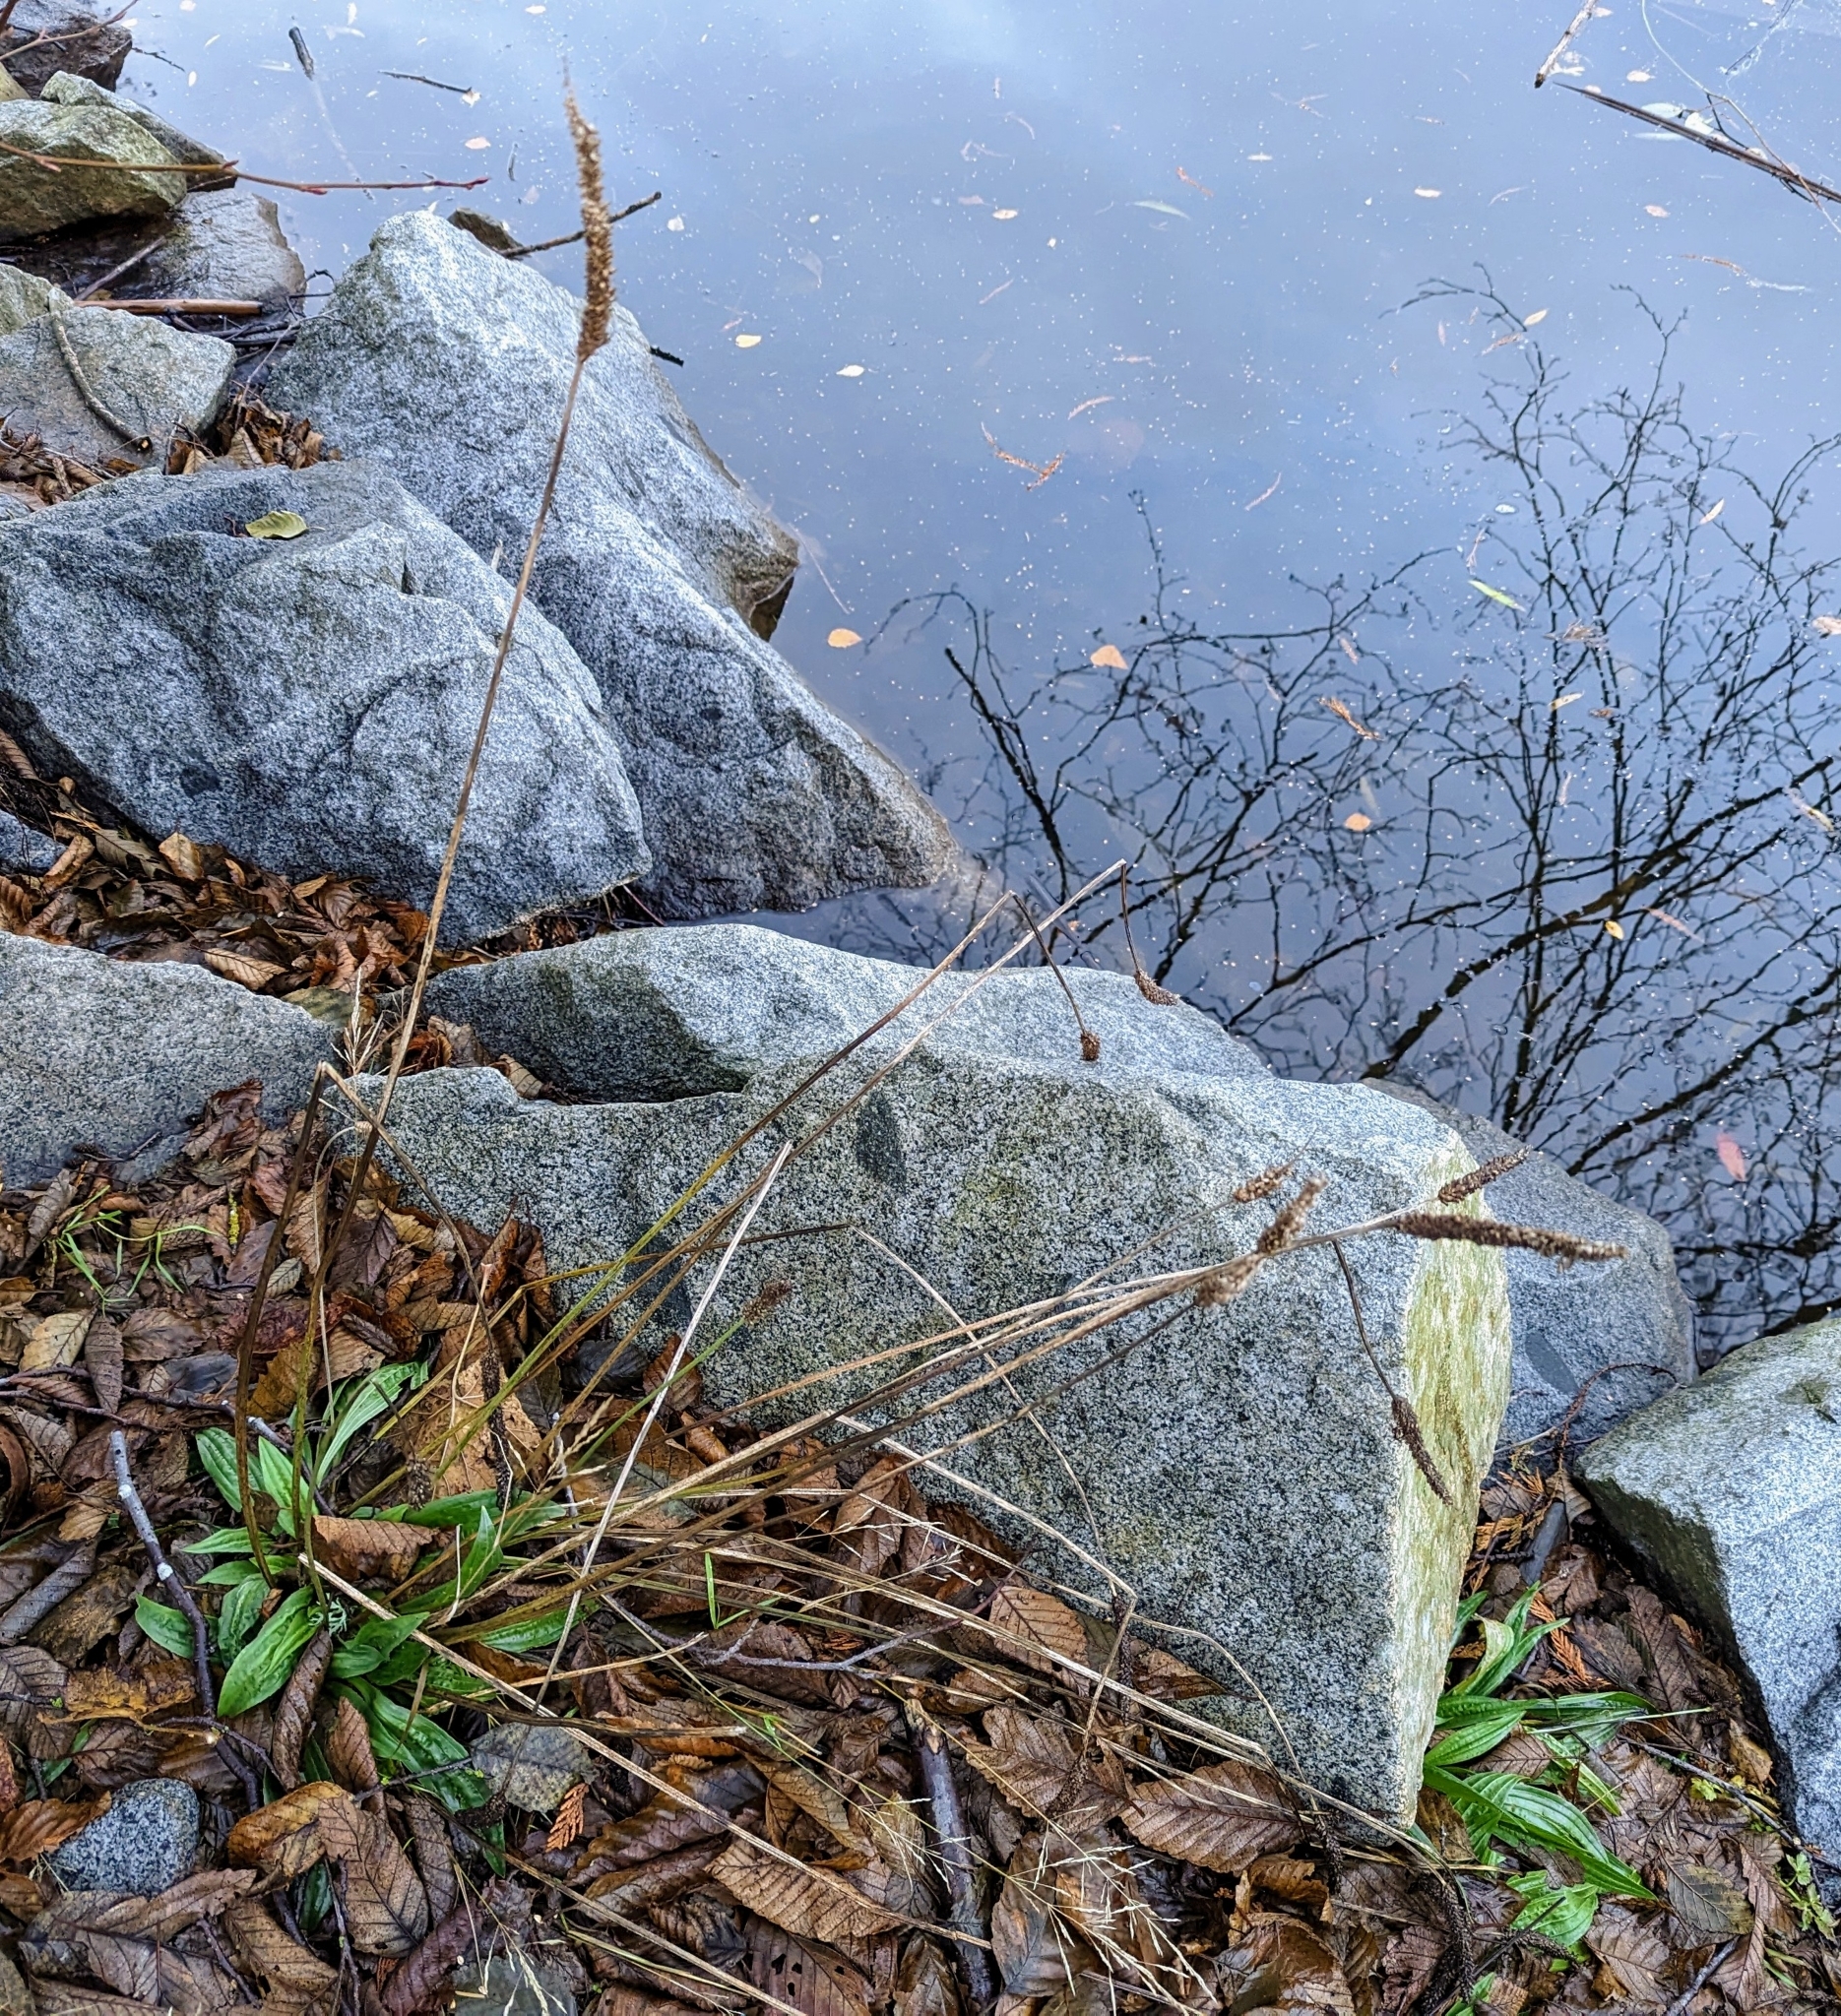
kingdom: Plantae
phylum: Tracheophyta
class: Magnoliopsida
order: Lamiales
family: Plantaginaceae
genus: Plantago
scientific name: Plantago lanceolata
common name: Ribwort plantain
